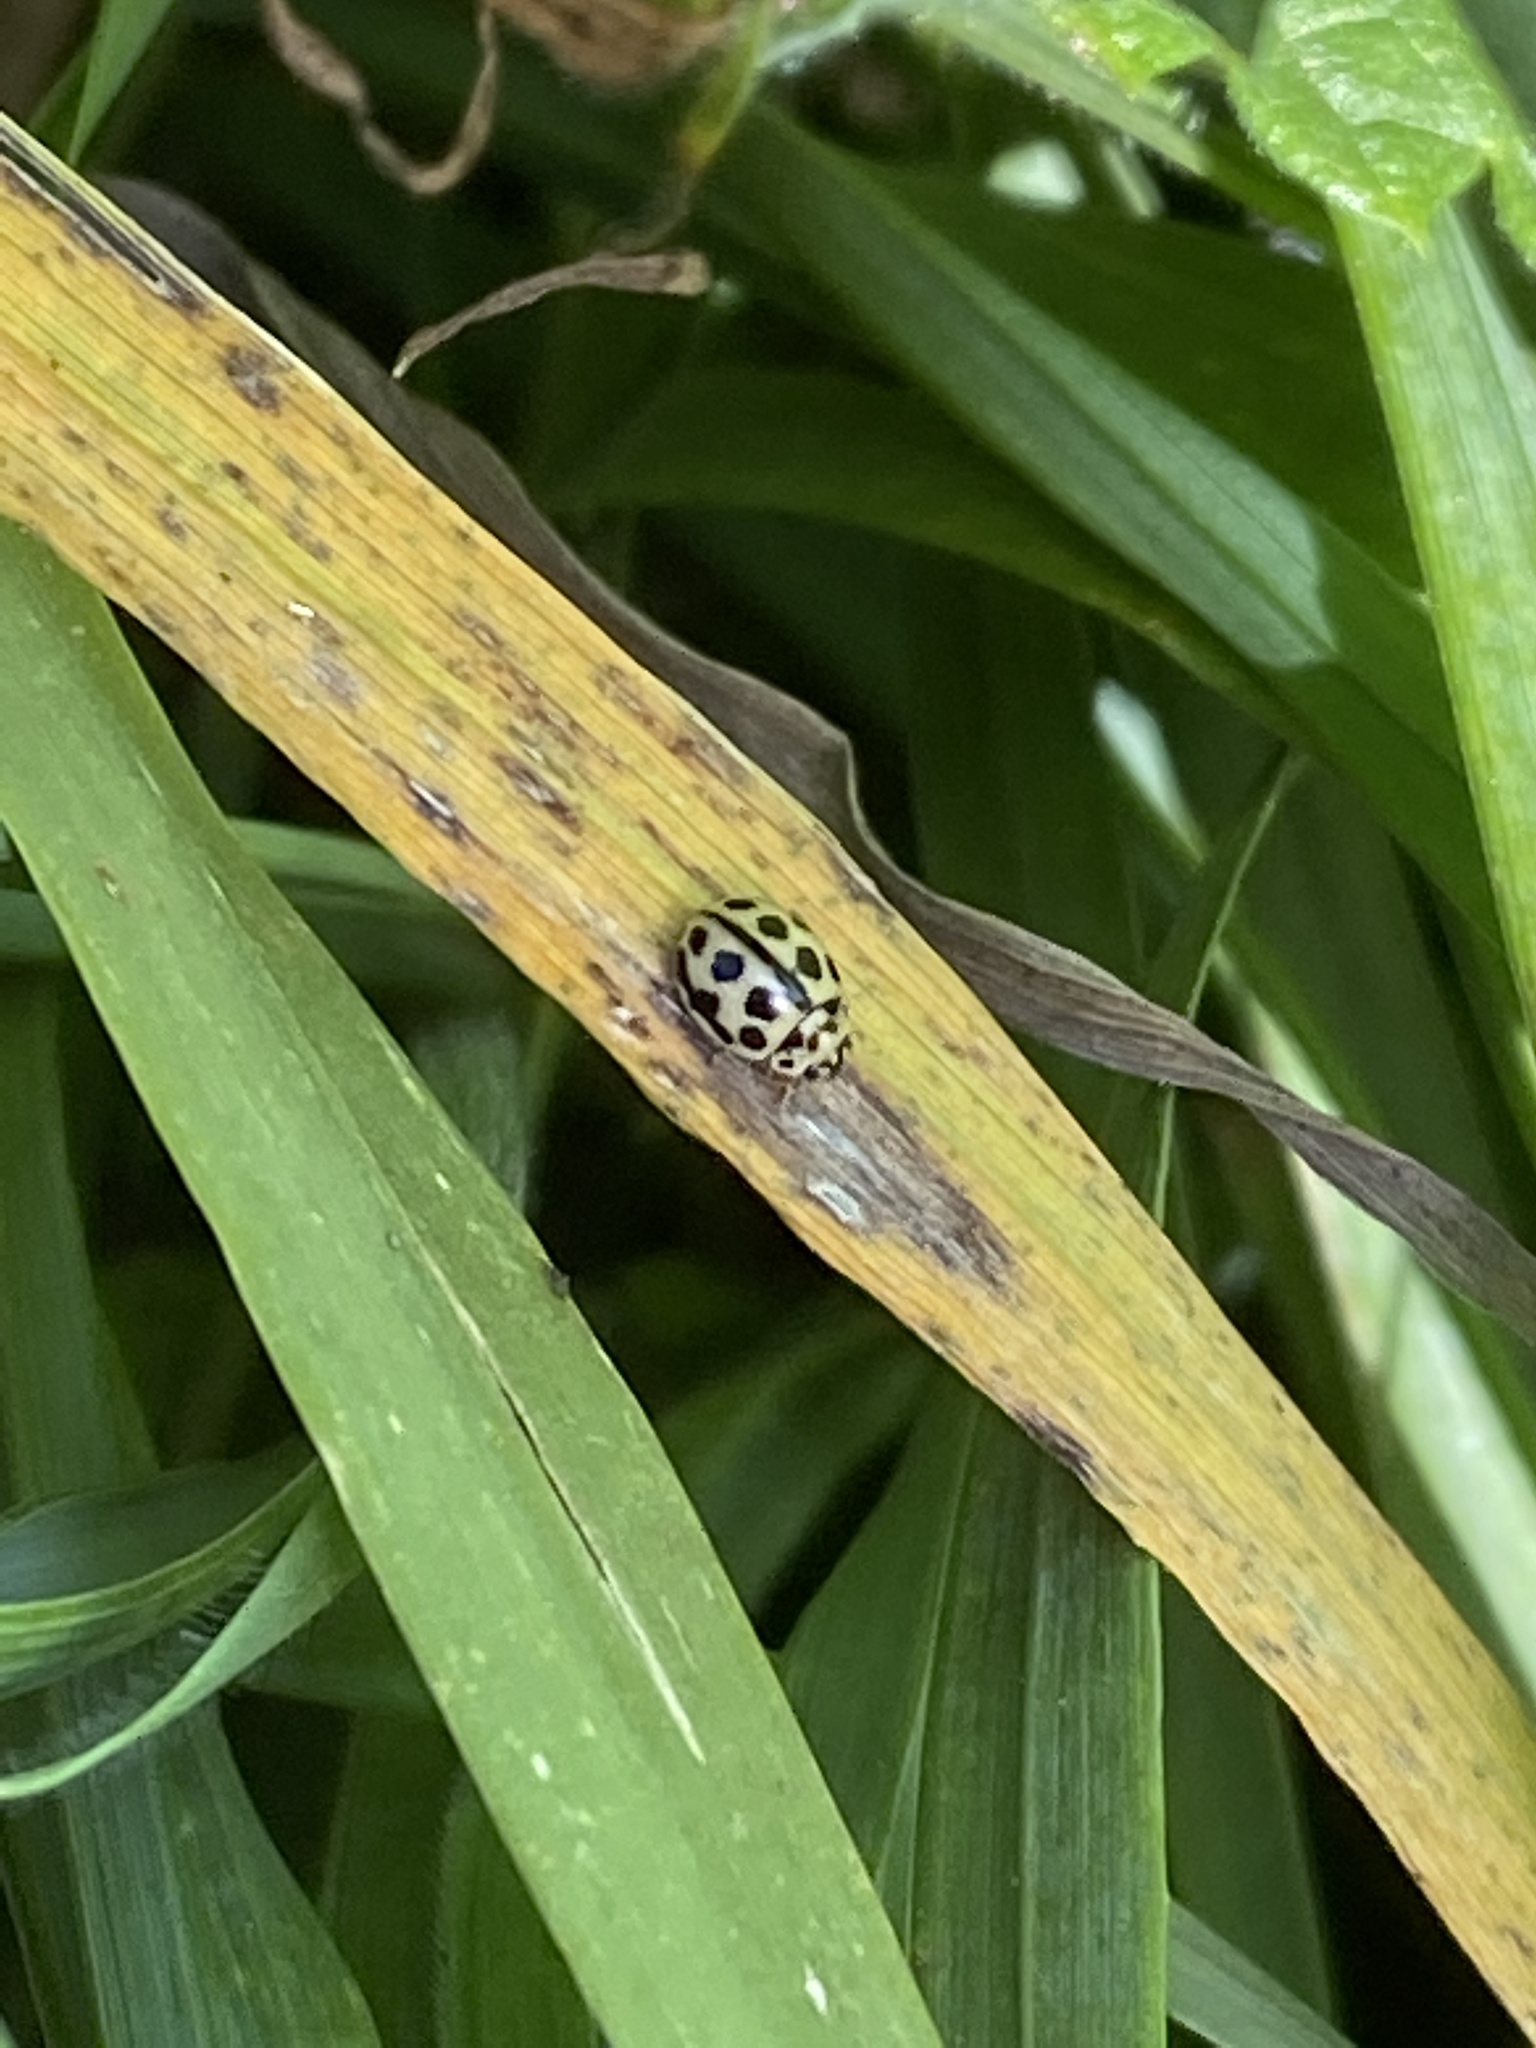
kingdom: Animalia
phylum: Arthropoda
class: Insecta
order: Coleoptera
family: Coccinellidae
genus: Tytthaspis
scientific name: Tytthaspis sedecimpunctata
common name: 16-spot ladybird
